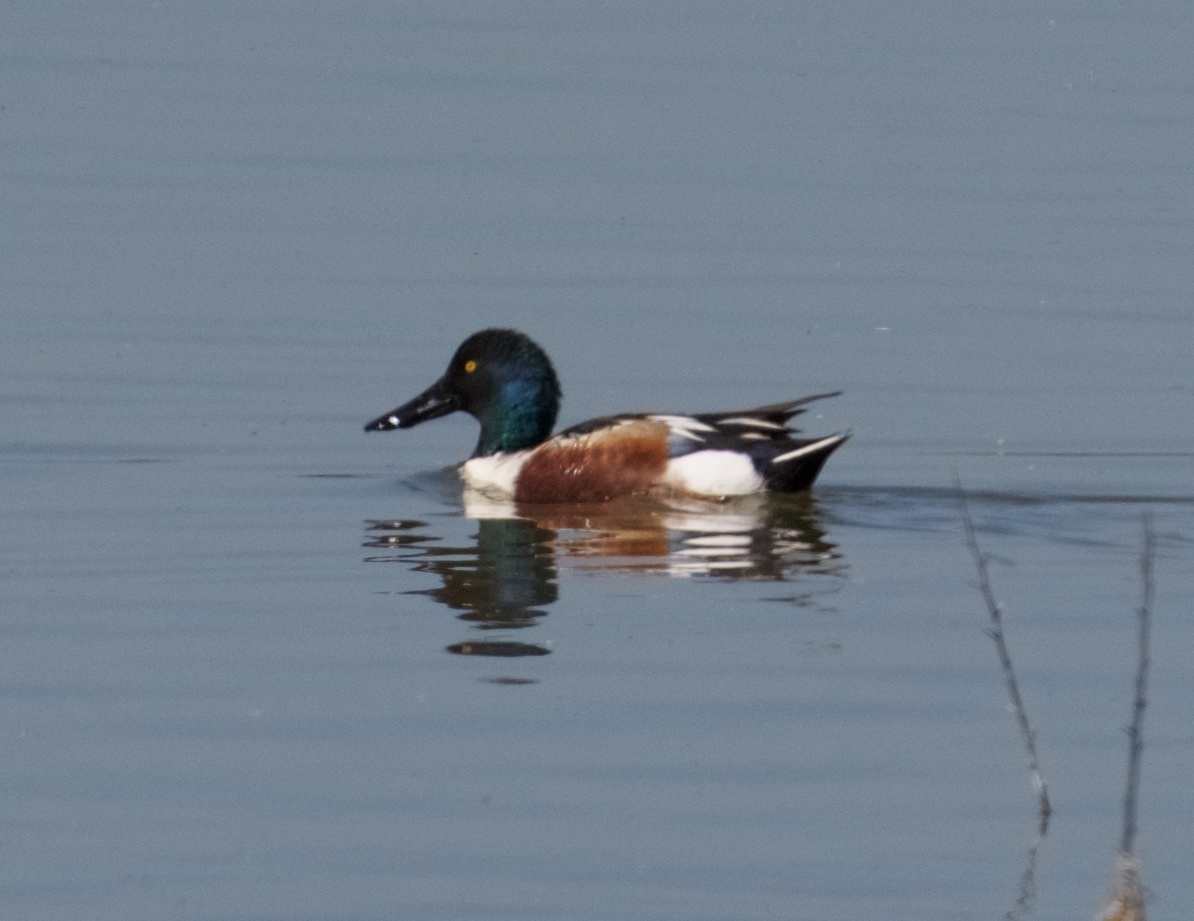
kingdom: Animalia
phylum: Chordata
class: Aves
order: Anseriformes
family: Anatidae
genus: Spatula
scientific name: Spatula clypeata
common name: Northern shoveler
